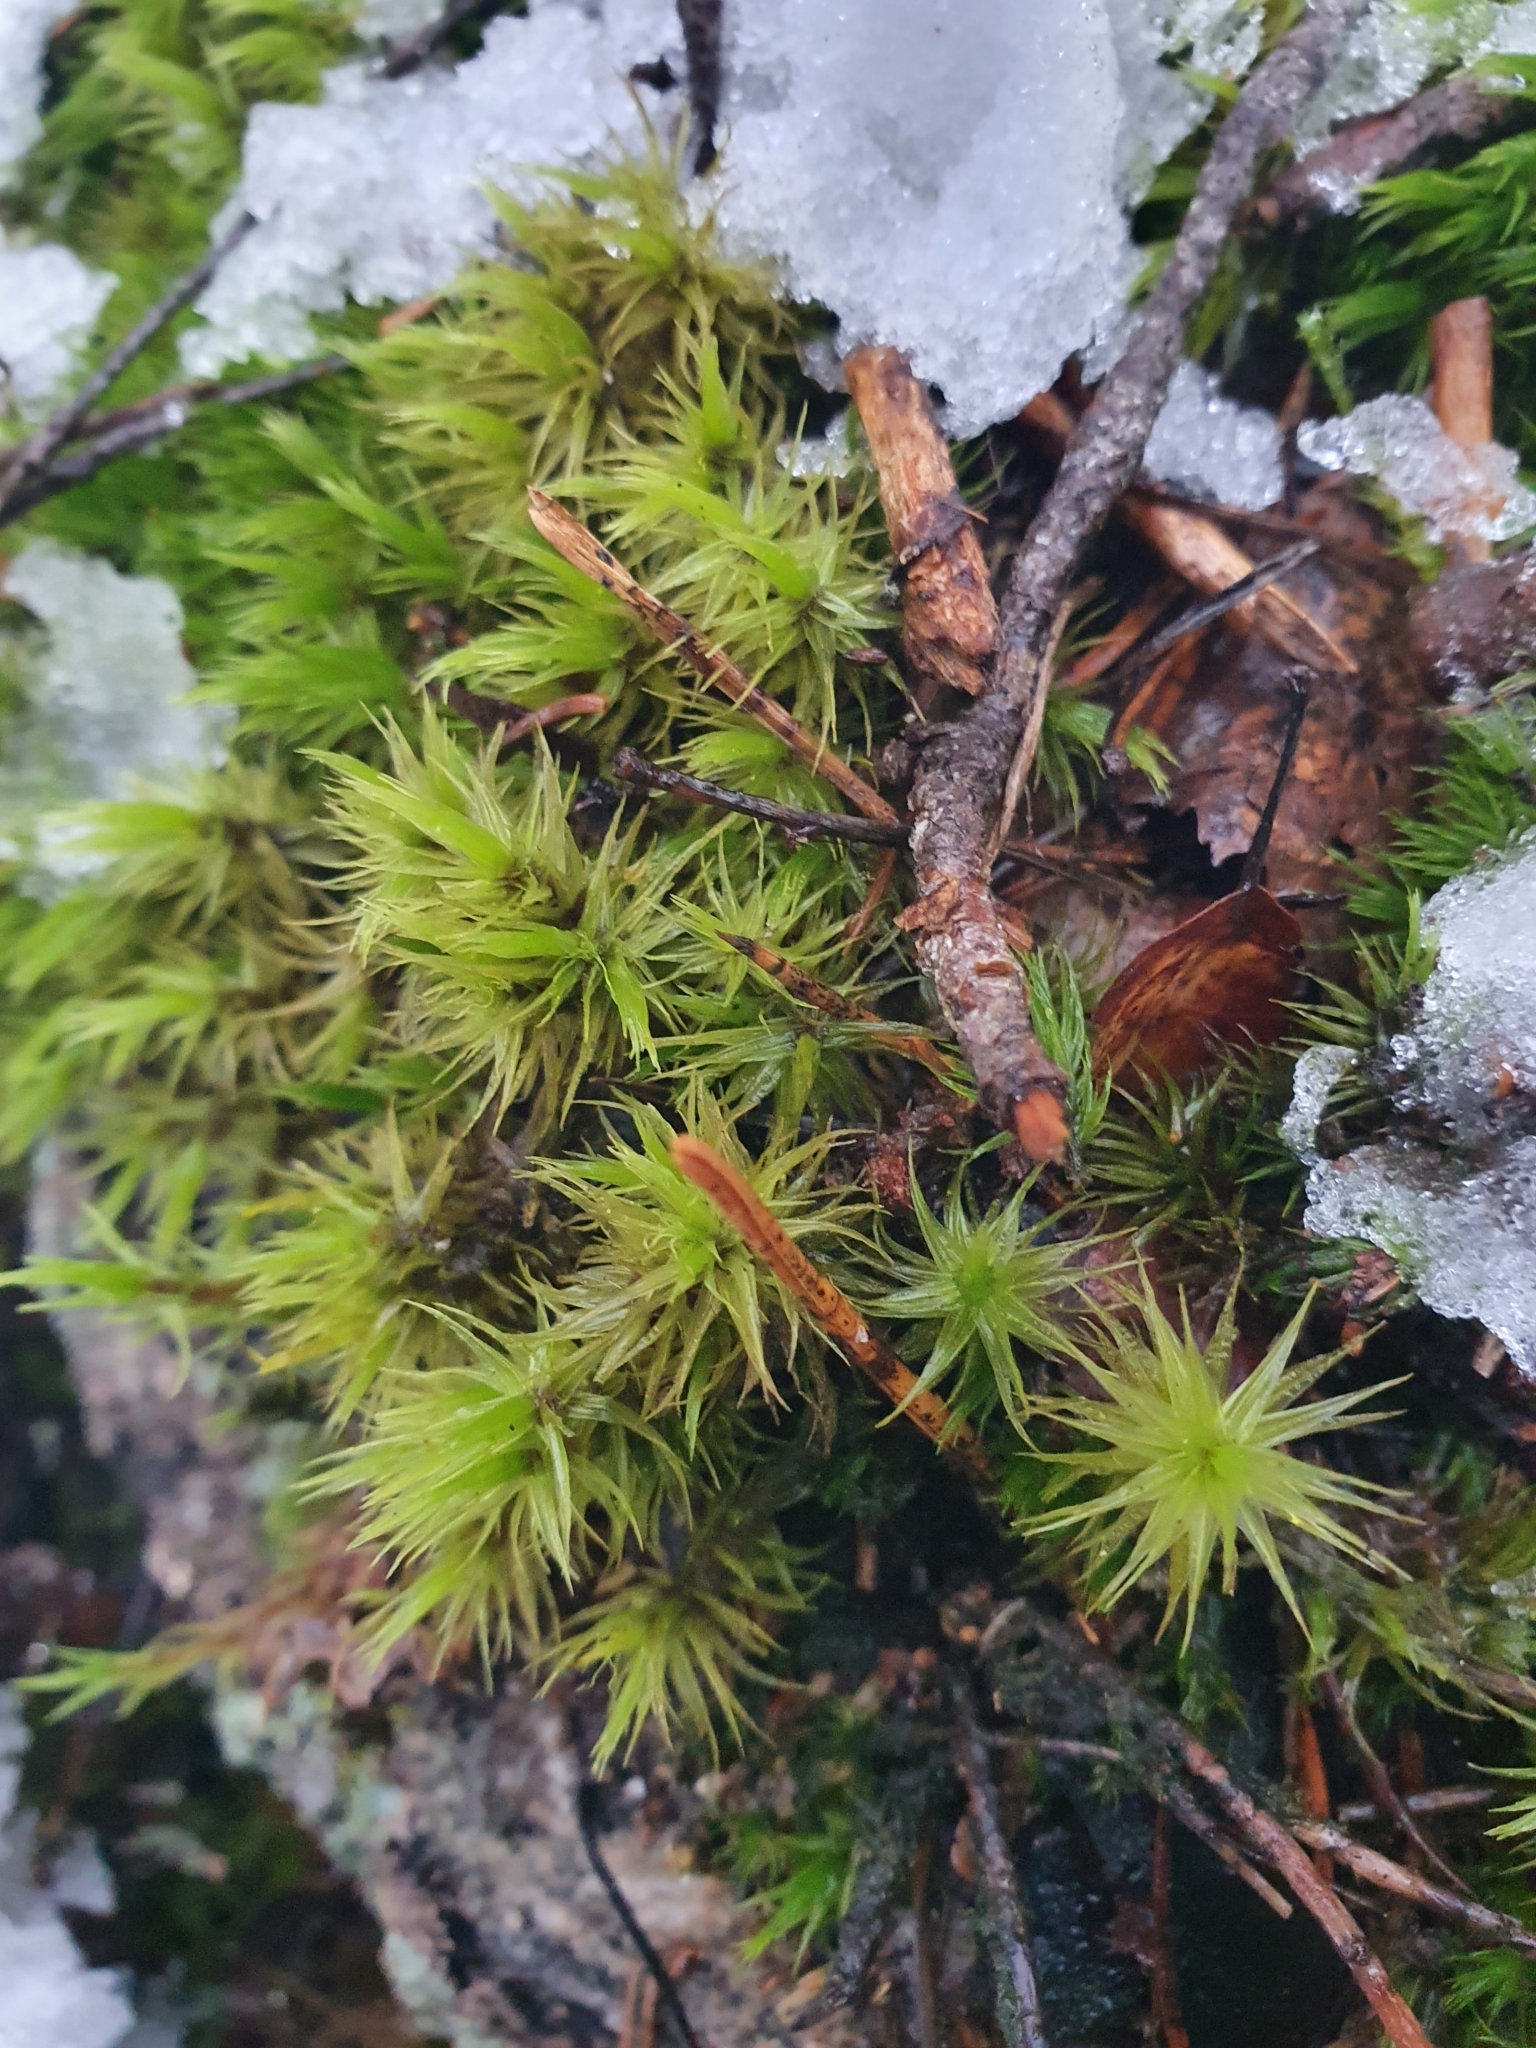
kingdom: Plantae
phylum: Bryophyta
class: Bryopsida
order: Dicranales
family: Dicranaceae
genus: Dicranum
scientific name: Dicranum scoparium
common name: Broom fork-moss
